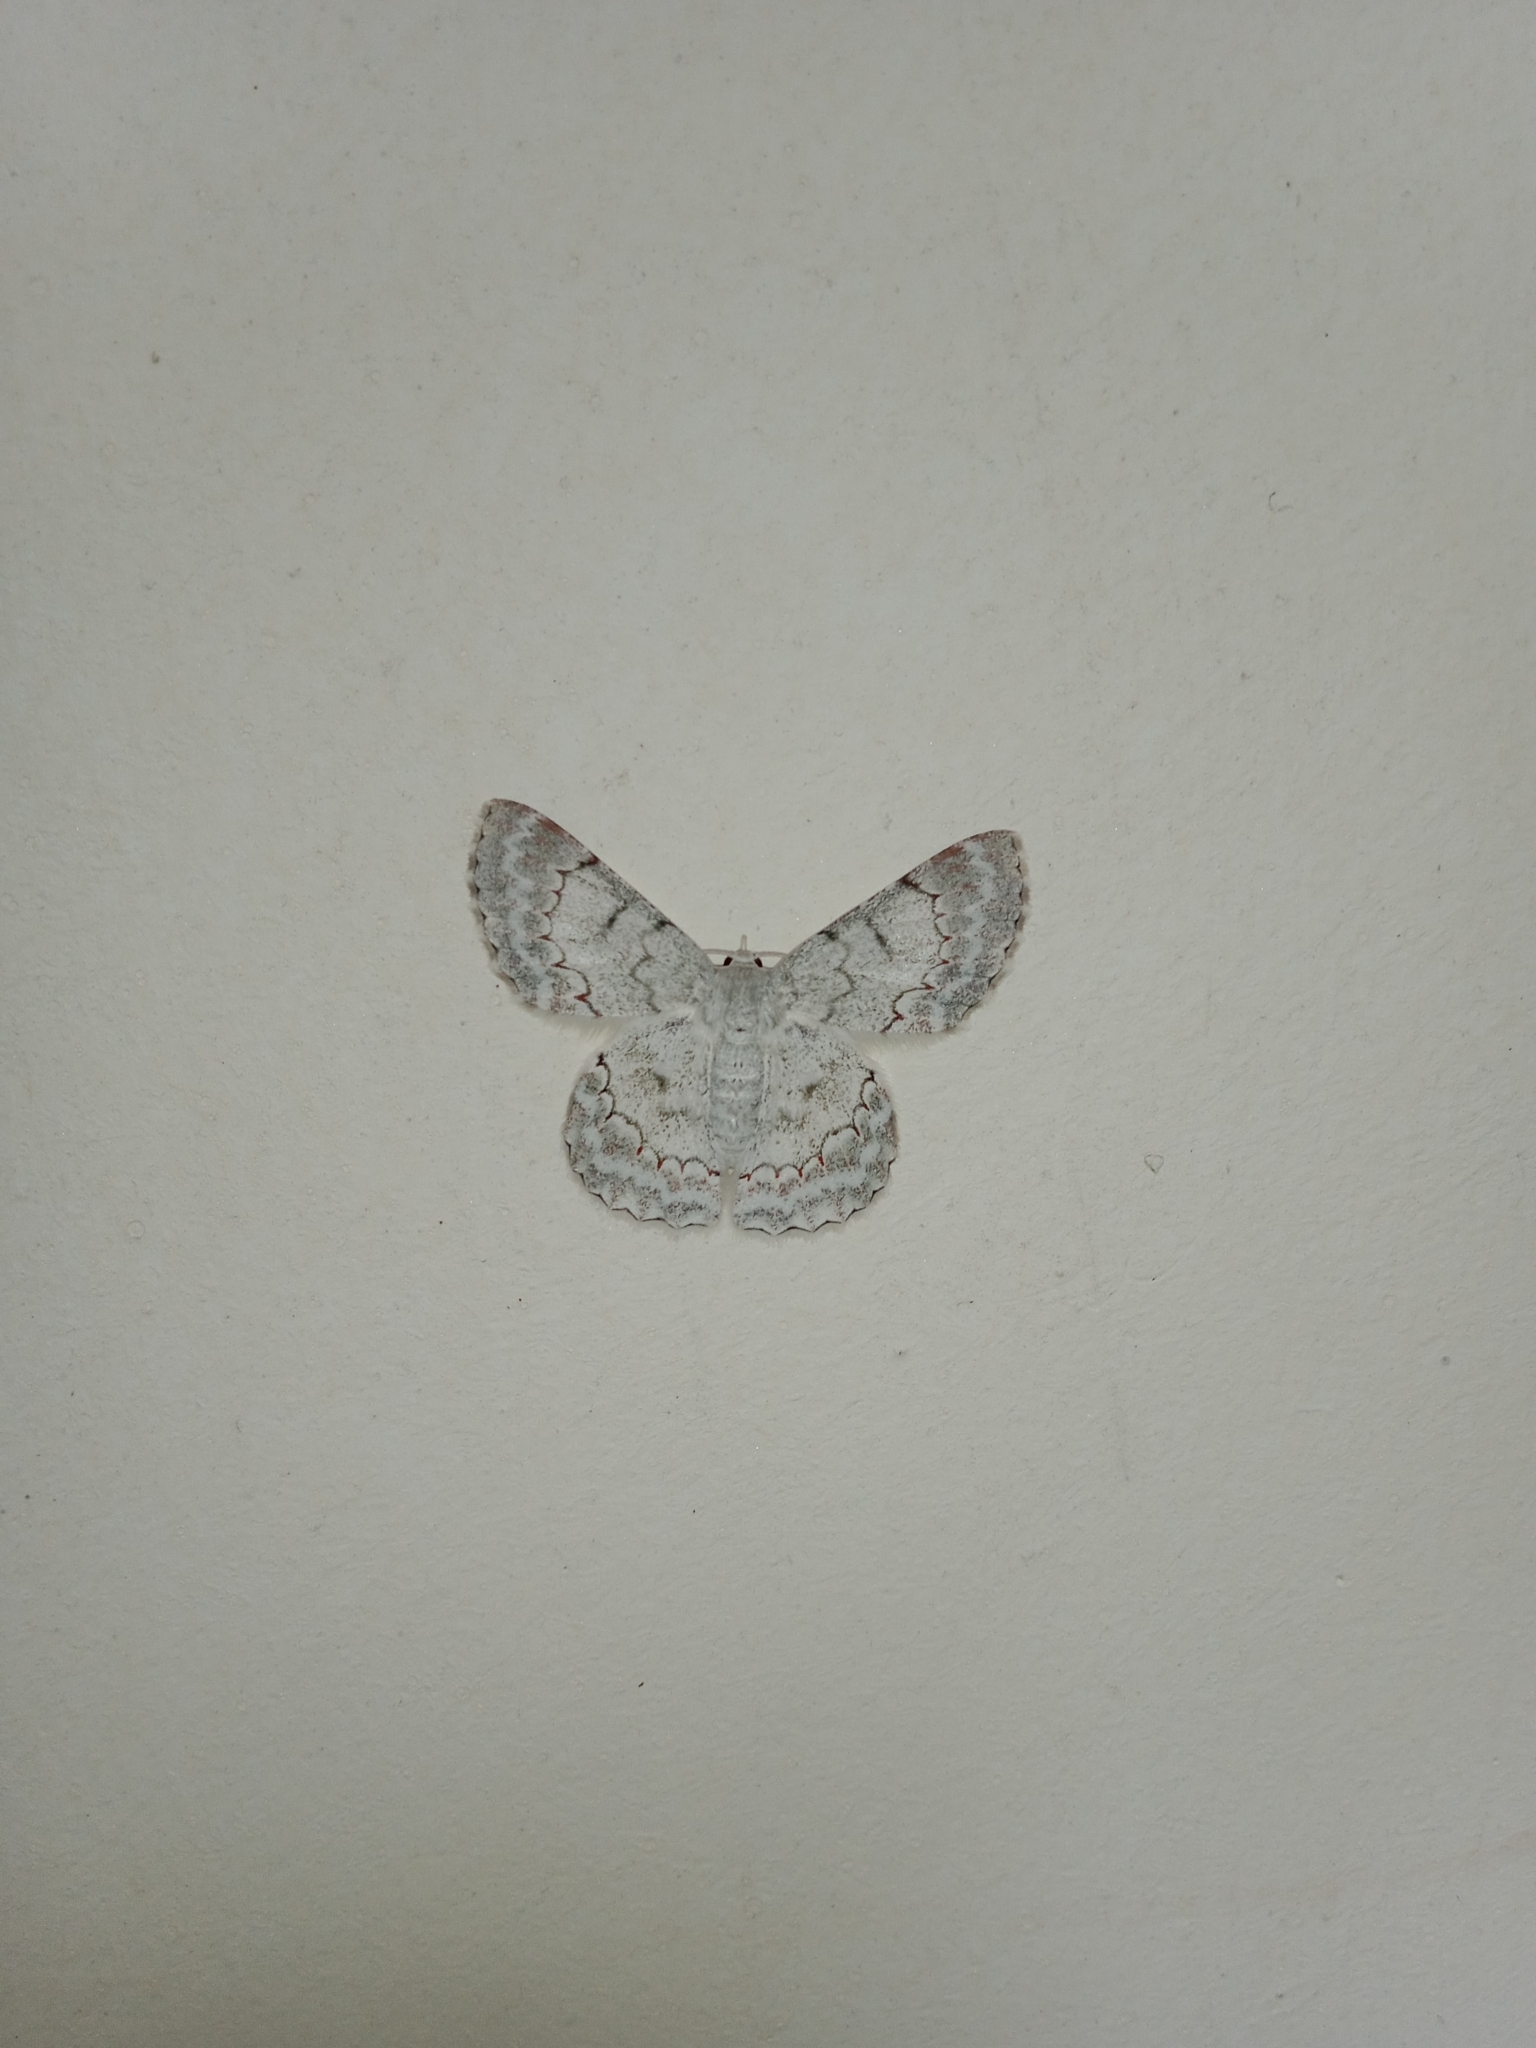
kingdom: Animalia
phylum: Arthropoda
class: Insecta
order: Lepidoptera
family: Geometridae
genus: Pingasa
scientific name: Pingasa chlora
